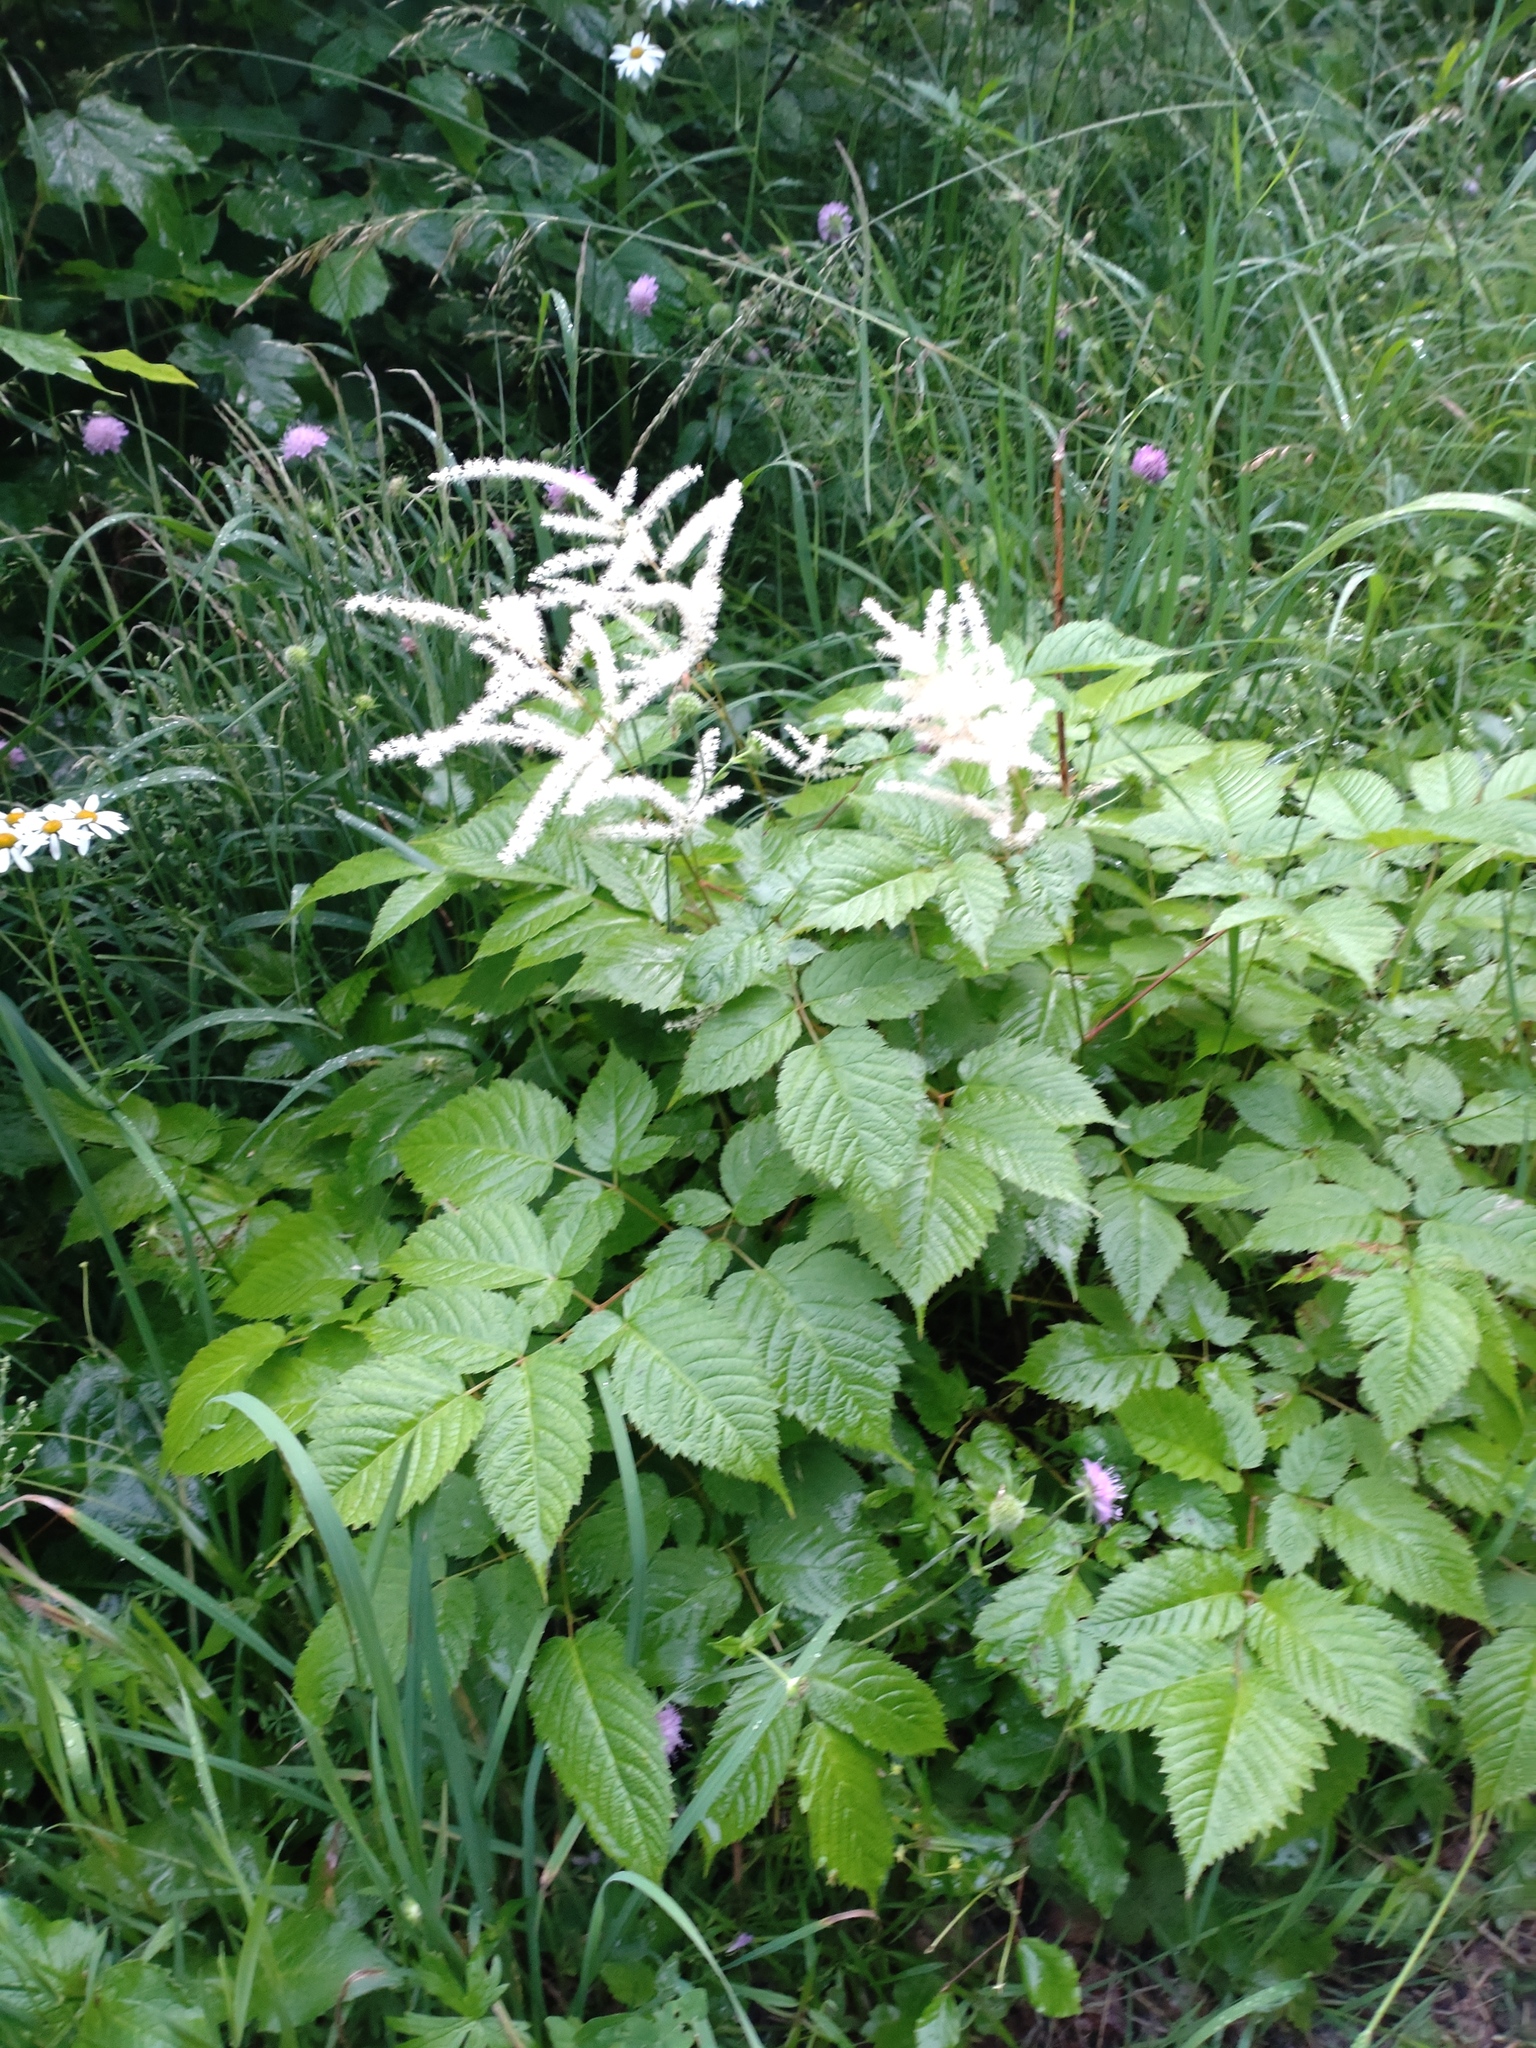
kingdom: Plantae
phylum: Tracheophyta
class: Magnoliopsida
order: Rosales
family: Rosaceae
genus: Aruncus
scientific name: Aruncus dioicus
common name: Buck's-beard
